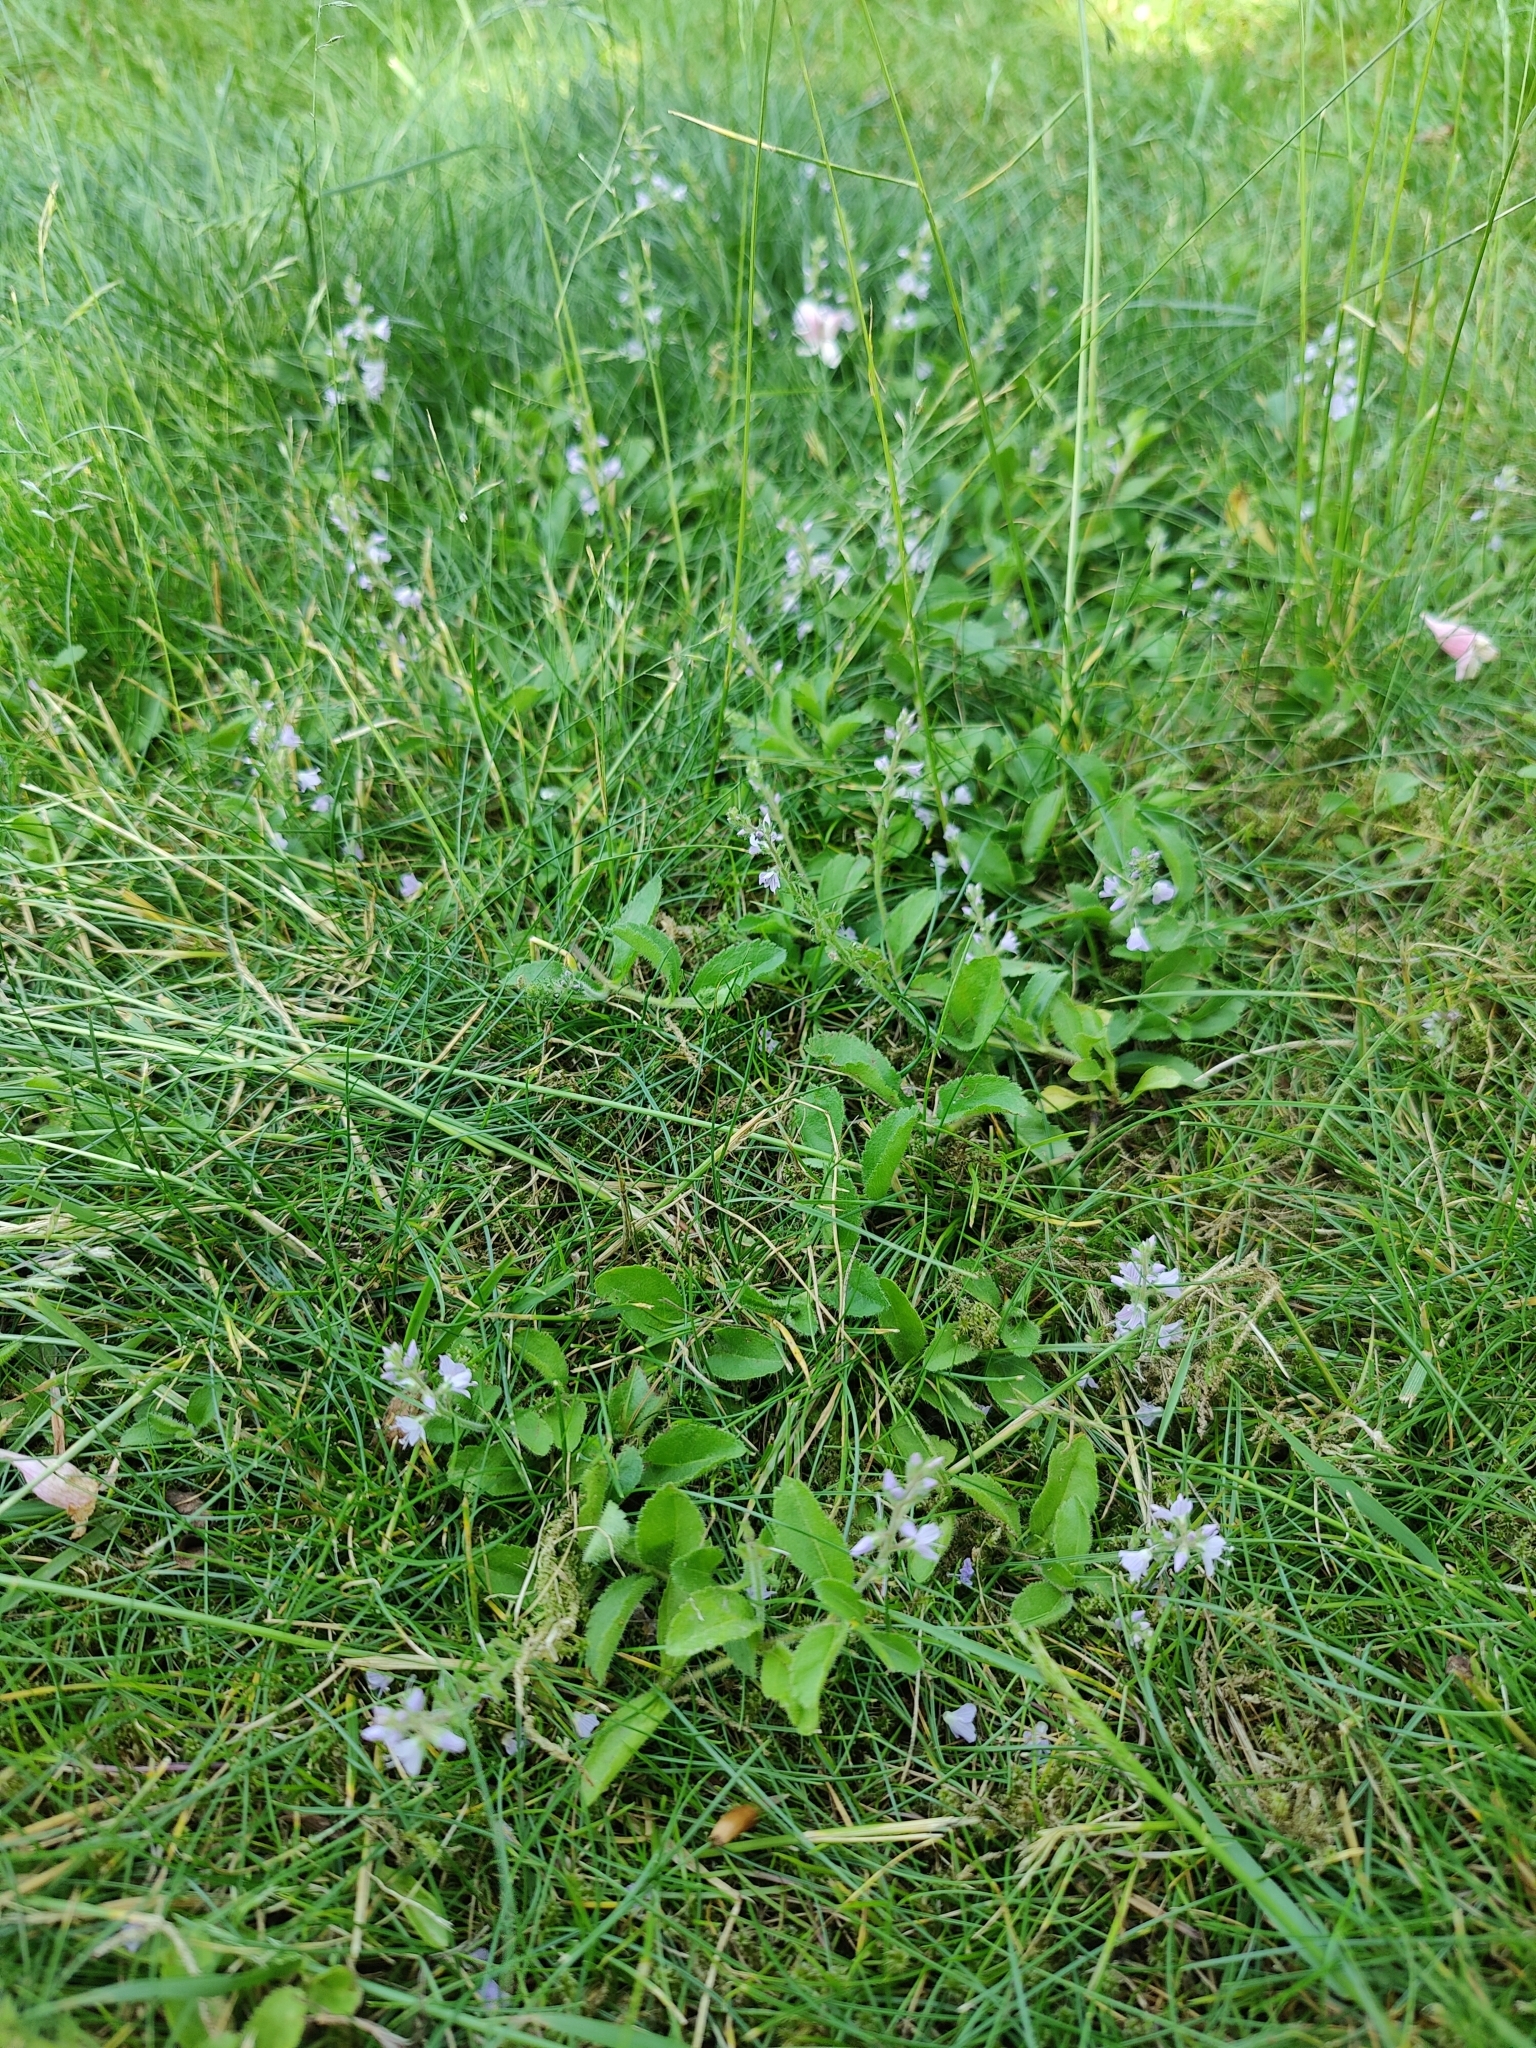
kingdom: Plantae
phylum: Tracheophyta
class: Magnoliopsida
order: Lamiales
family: Plantaginaceae
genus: Veronica
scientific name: Veronica officinalis
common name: Common speedwell
